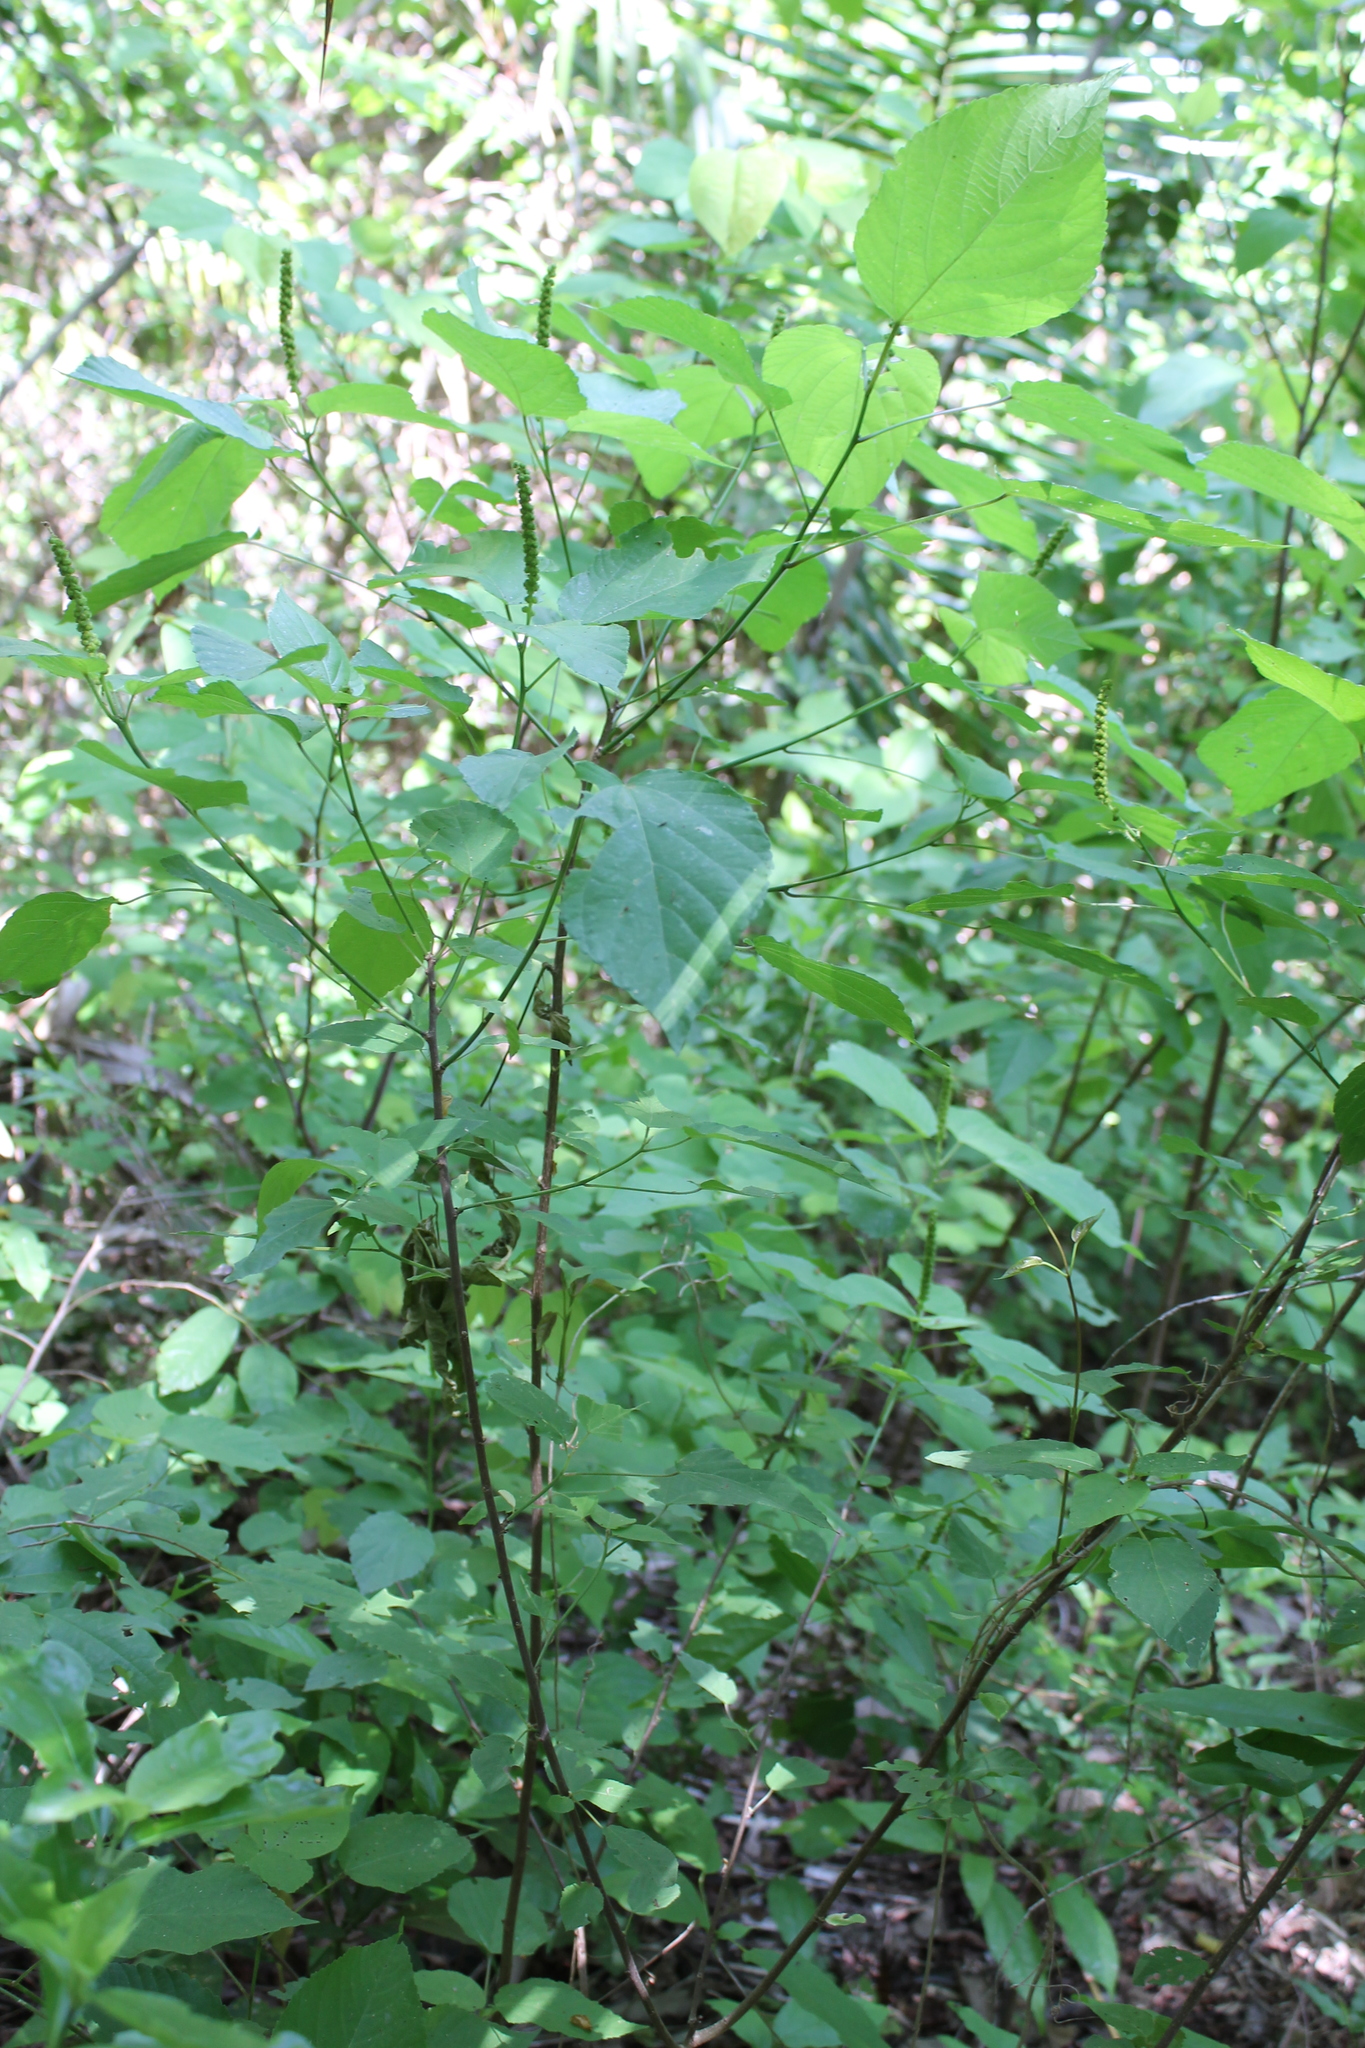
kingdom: Plantae
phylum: Tracheophyta
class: Magnoliopsida
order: Malpighiales
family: Euphorbiaceae
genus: Acalypha
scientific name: Acalypha cincta
